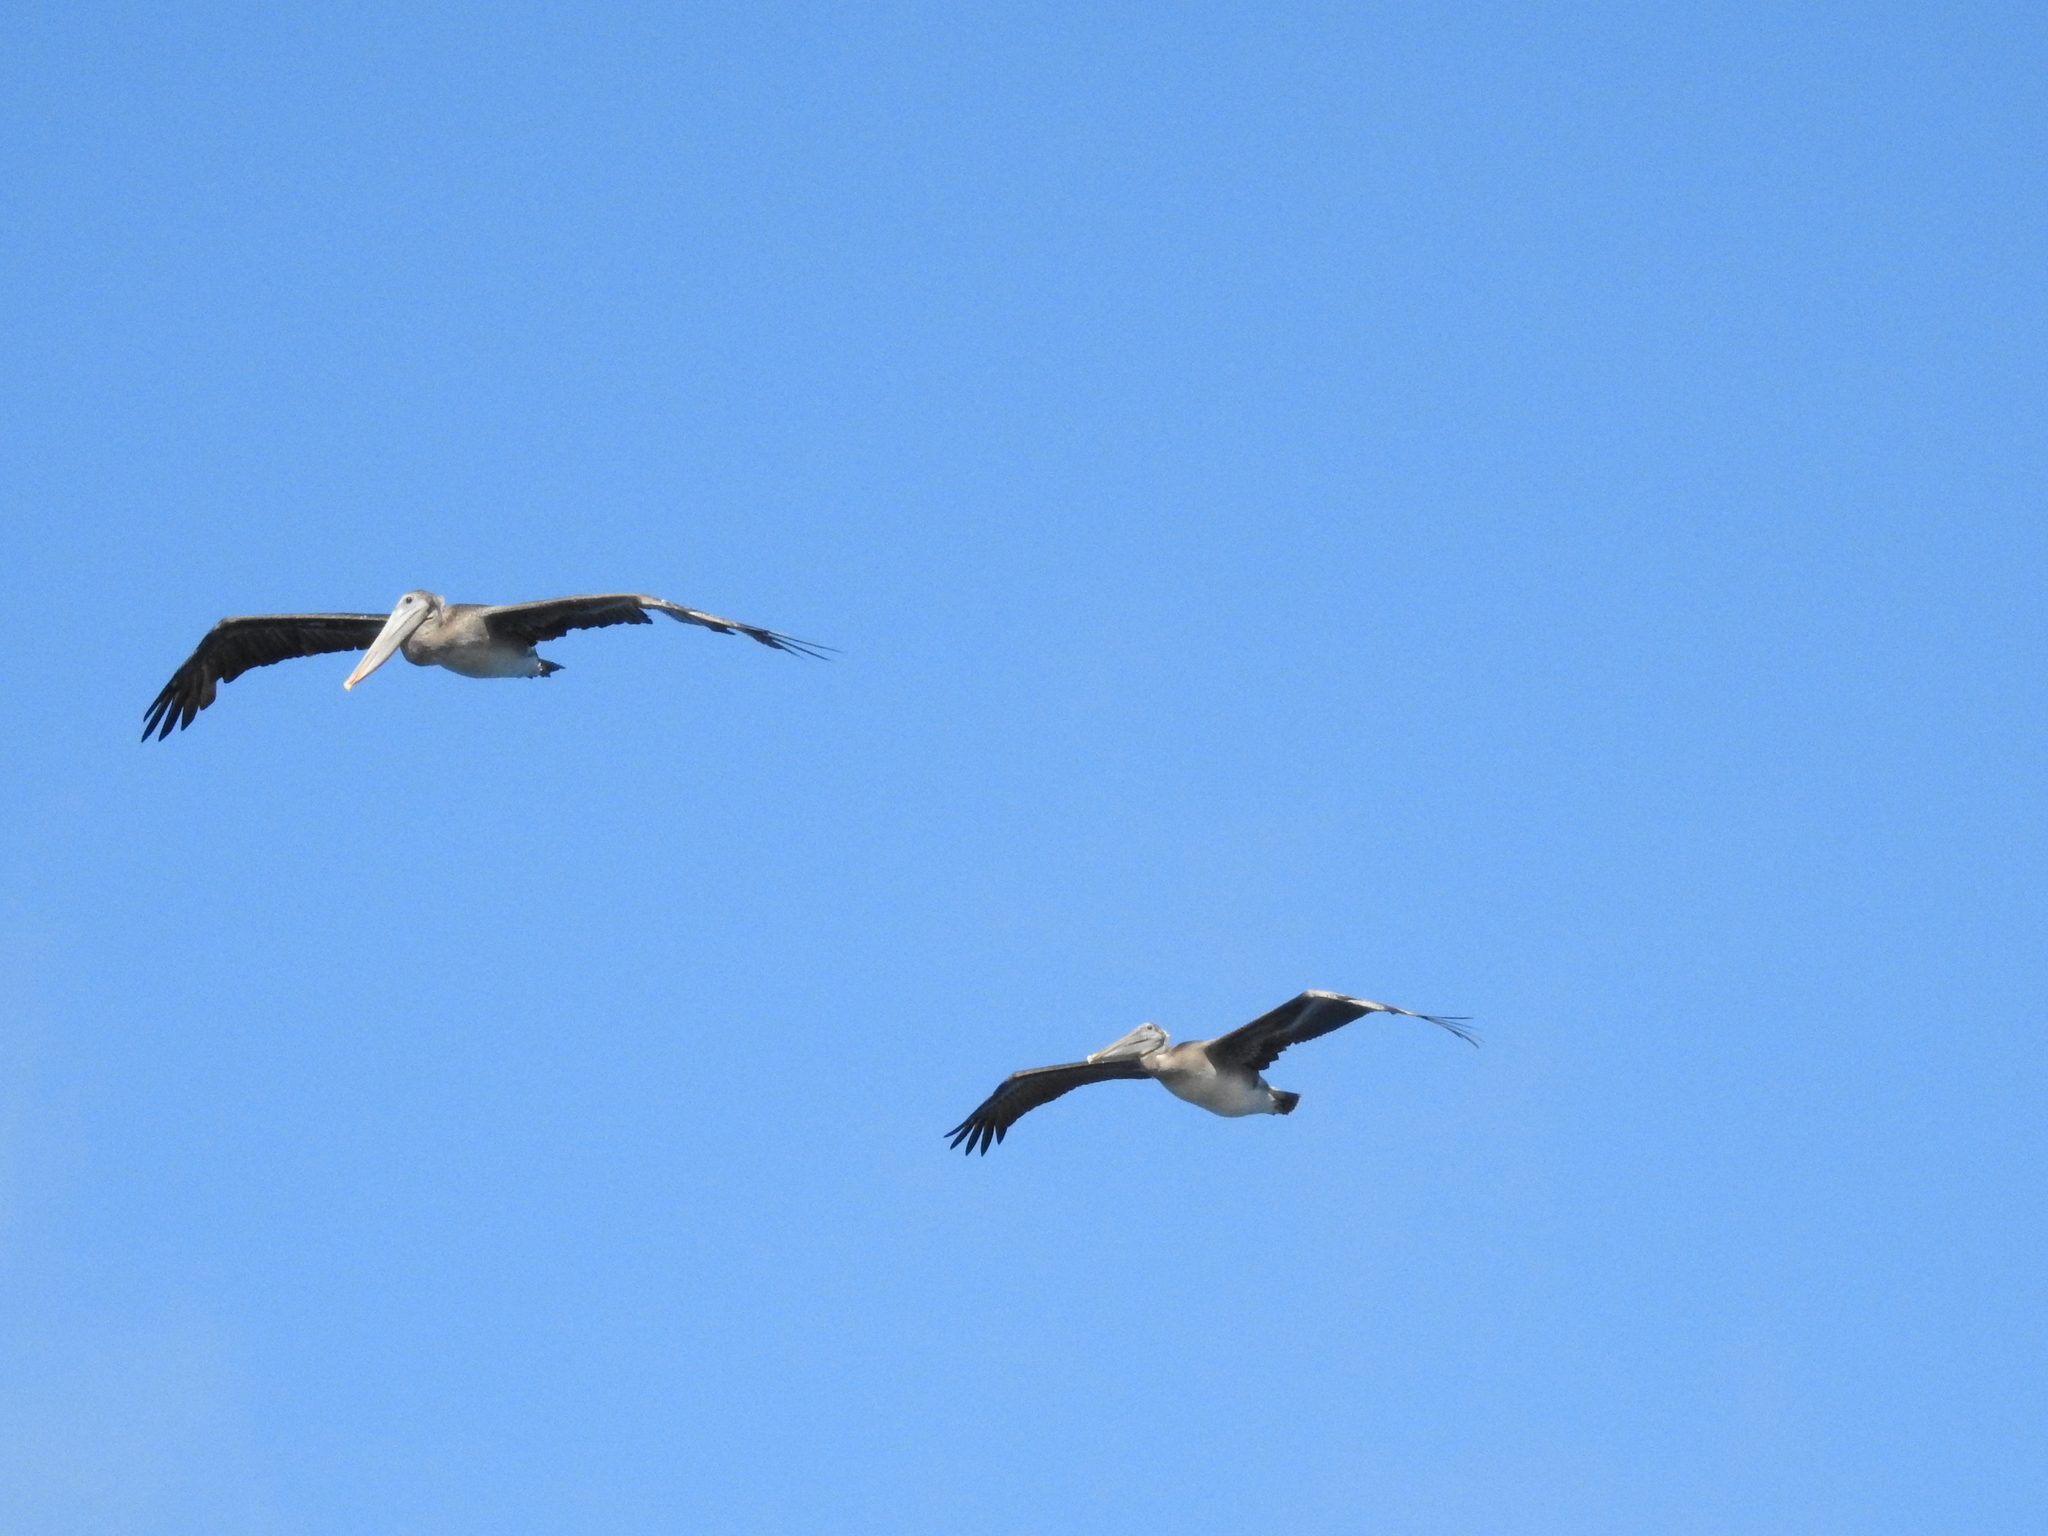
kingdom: Animalia
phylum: Chordata
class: Aves
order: Pelecaniformes
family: Pelecanidae
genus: Pelecanus
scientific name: Pelecanus occidentalis
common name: Brown pelican
